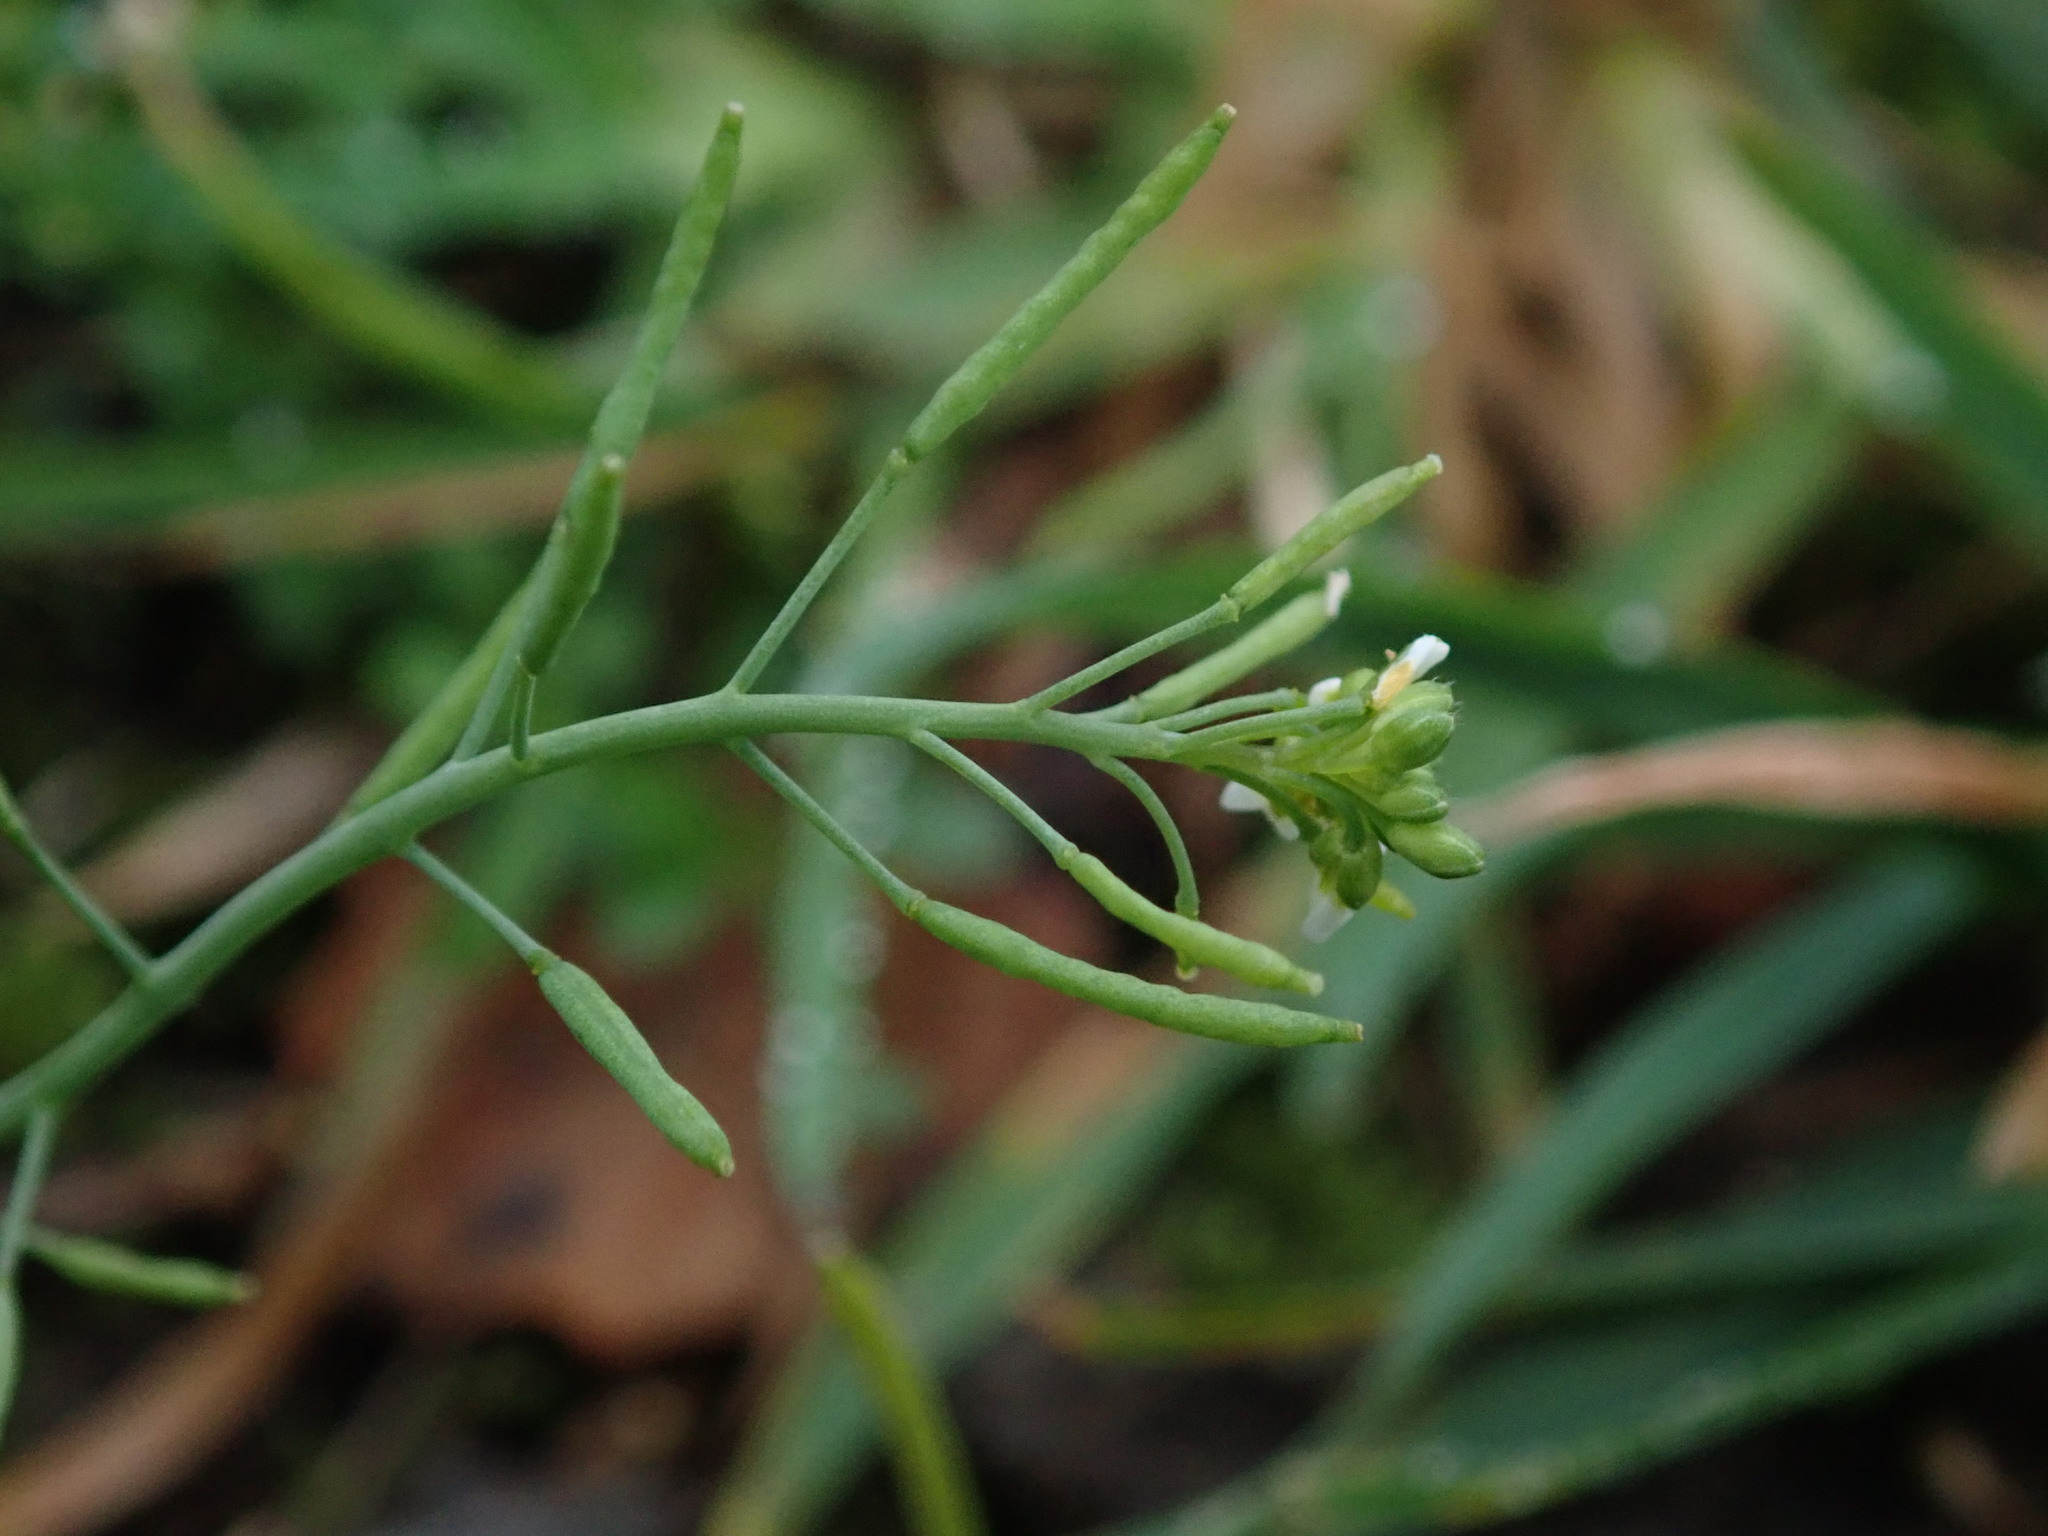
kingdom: Plantae
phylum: Tracheophyta
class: Magnoliopsida
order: Brassicales
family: Brassicaceae
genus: Arabidopsis
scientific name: Arabidopsis thaliana
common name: Thale cress
